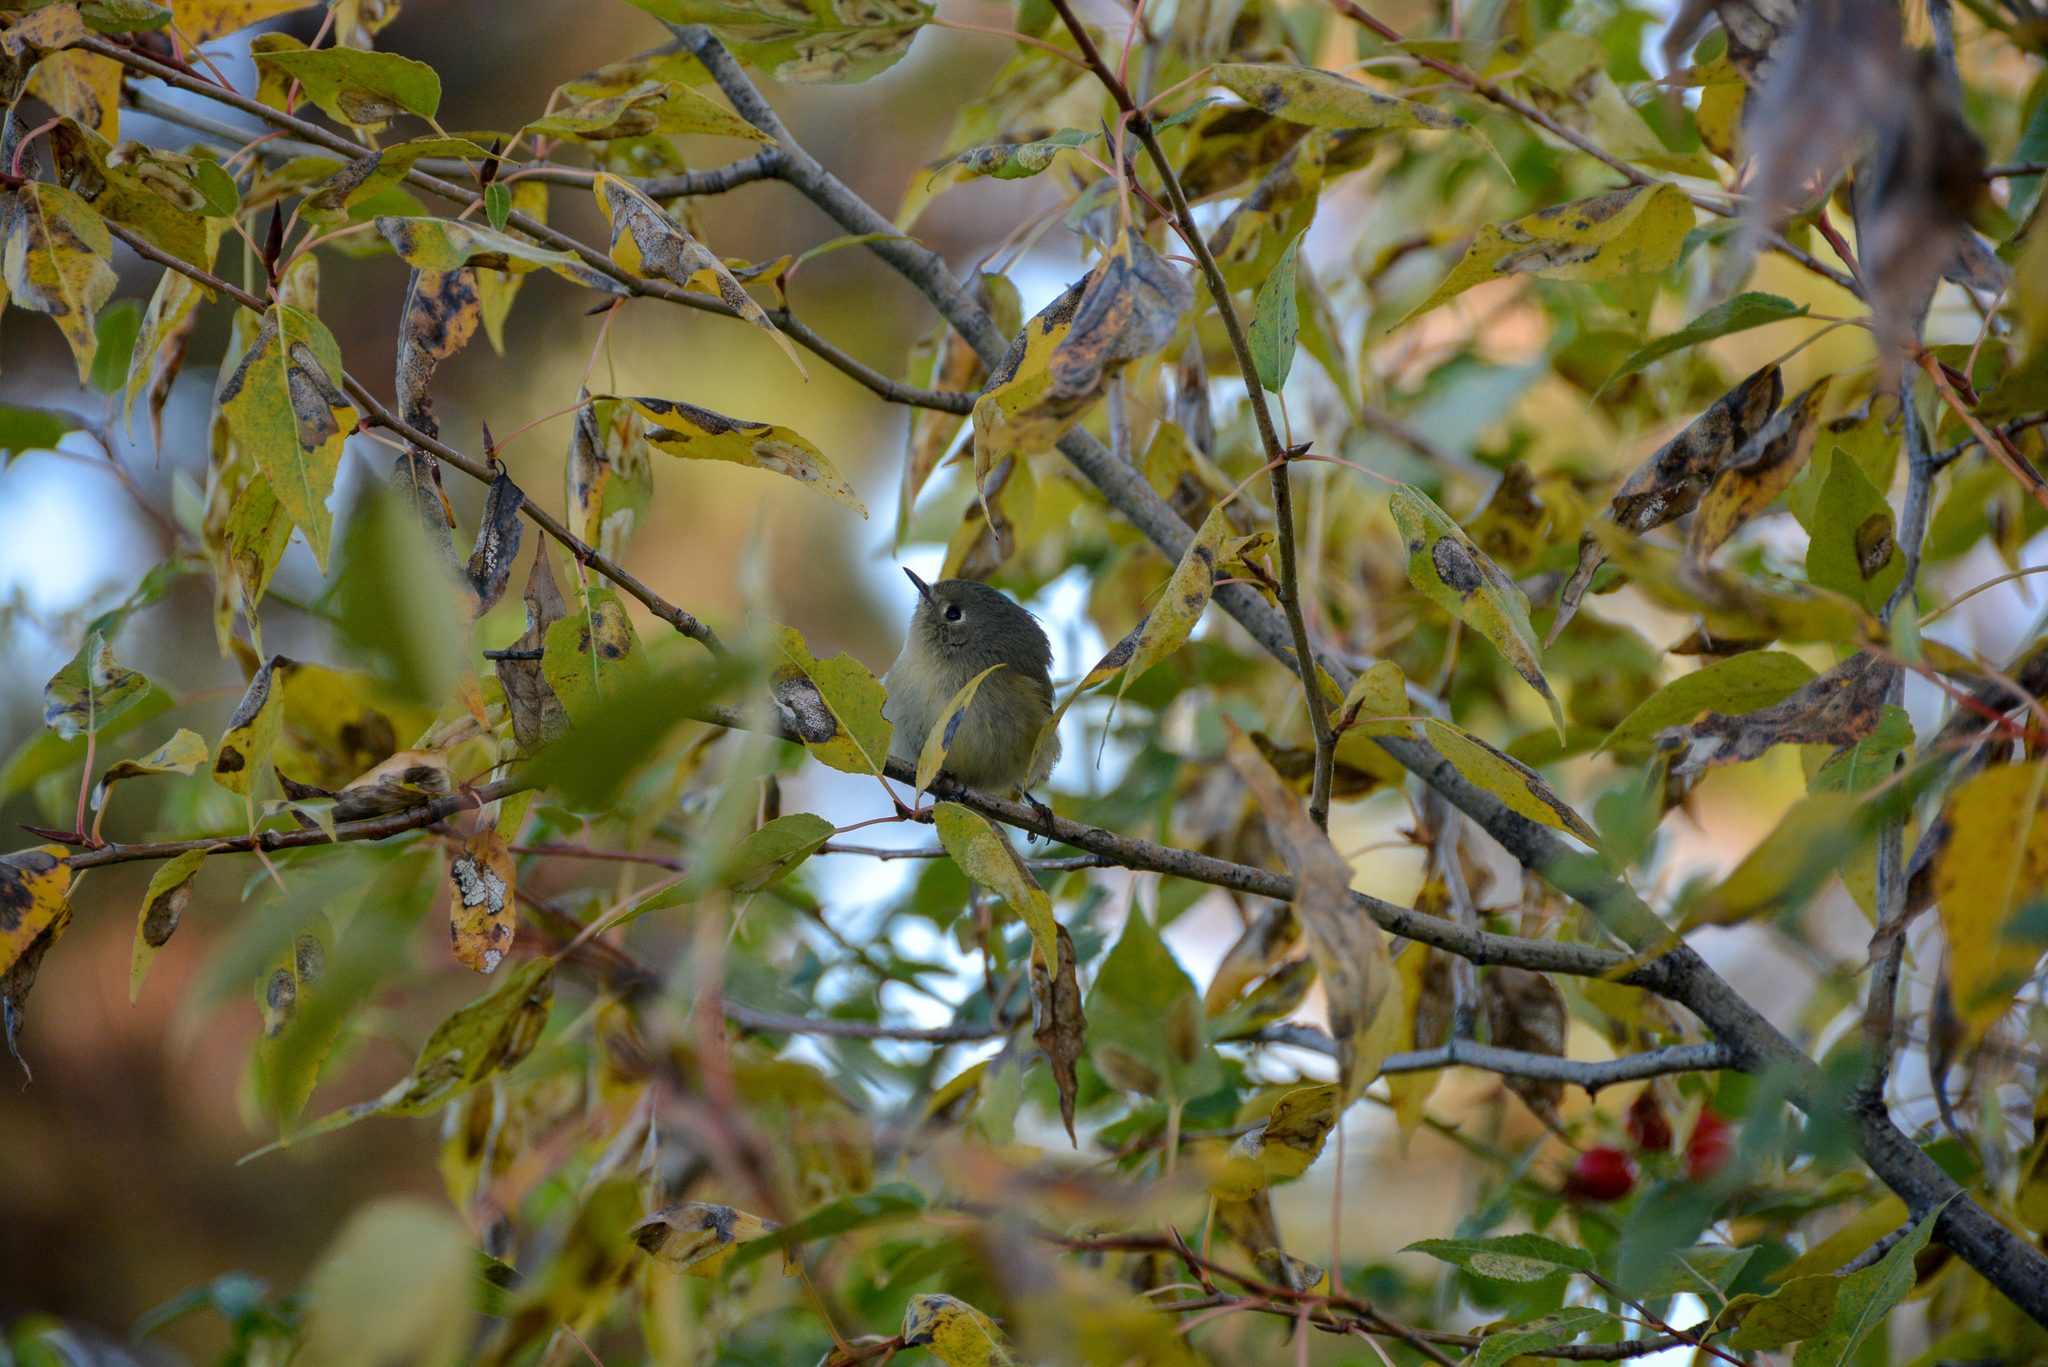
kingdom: Animalia
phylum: Chordata
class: Aves
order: Passeriformes
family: Regulidae
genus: Regulus
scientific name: Regulus calendula
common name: Ruby-crowned kinglet
